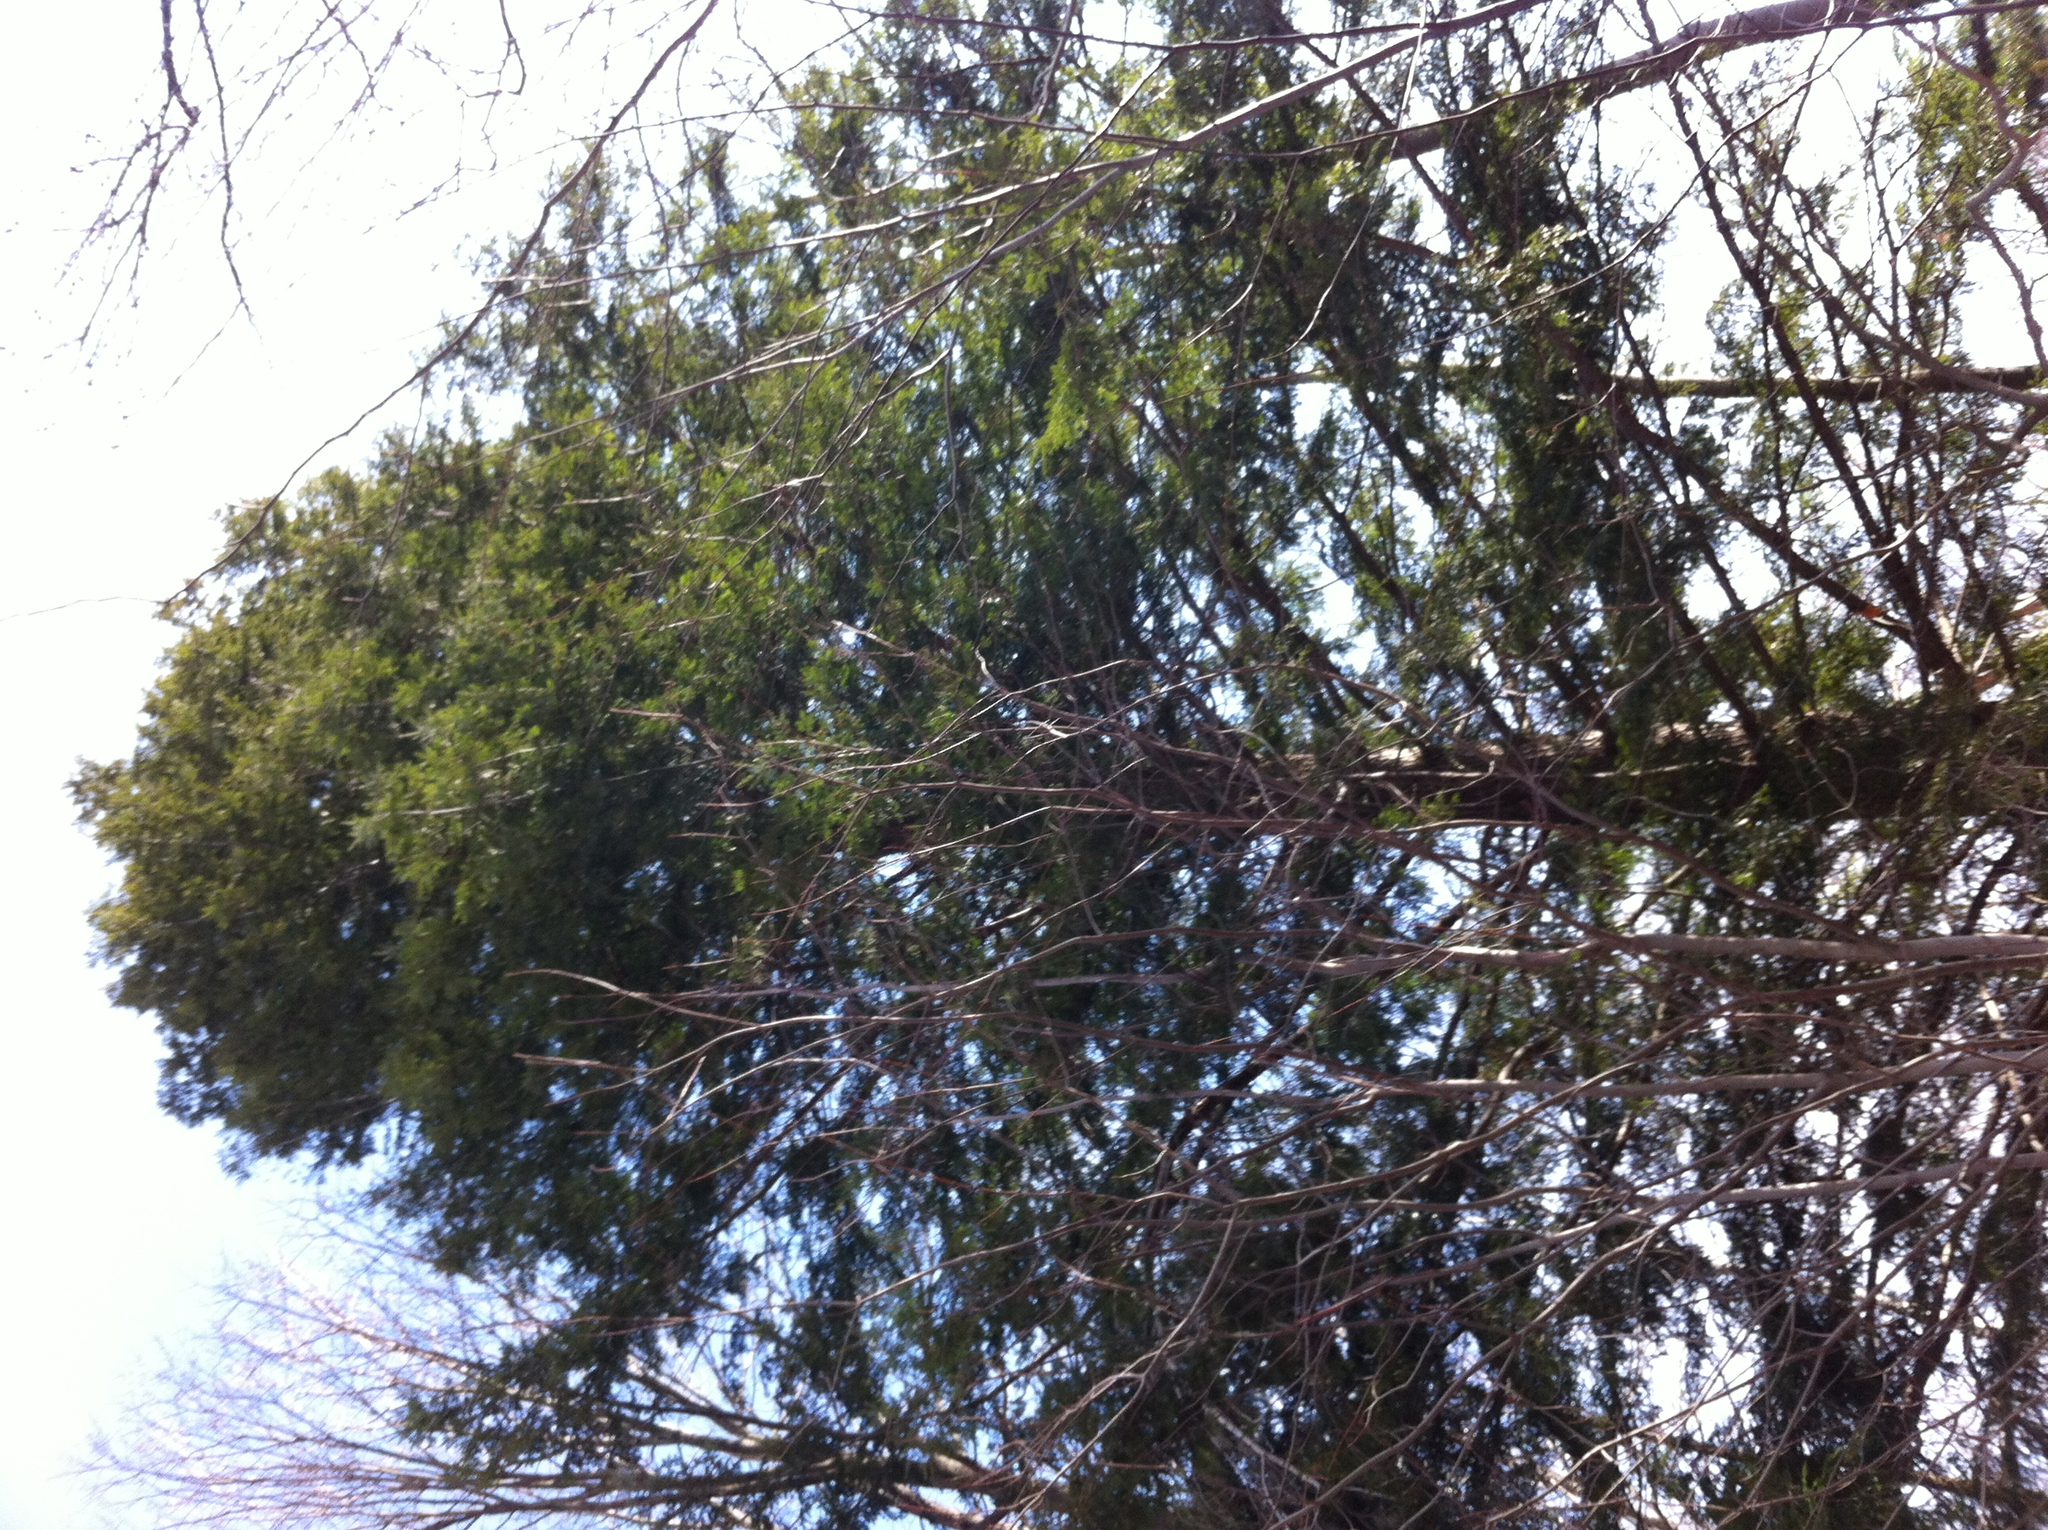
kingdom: Plantae
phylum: Tracheophyta
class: Pinopsida
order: Pinales
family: Pinaceae
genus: Tsuga
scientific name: Tsuga canadensis
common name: Eastern hemlock
